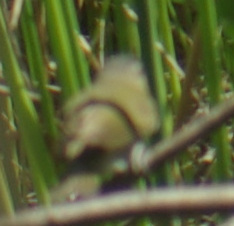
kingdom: Animalia
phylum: Chordata
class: Aves
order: Passeriformes
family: Vireonidae
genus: Vireo
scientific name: Vireo olivaceus
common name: Red-eyed vireo
